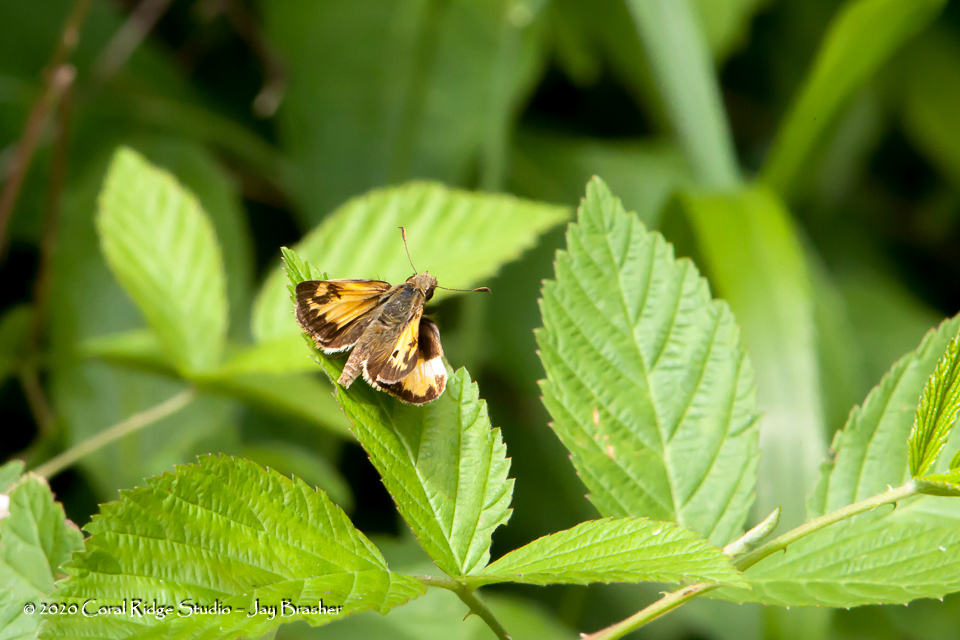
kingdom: Animalia
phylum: Arthropoda
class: Insecta
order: Lepidoptera
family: Hesperiidae
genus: Lon
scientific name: Lon zabulon
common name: Zabulon skipper
